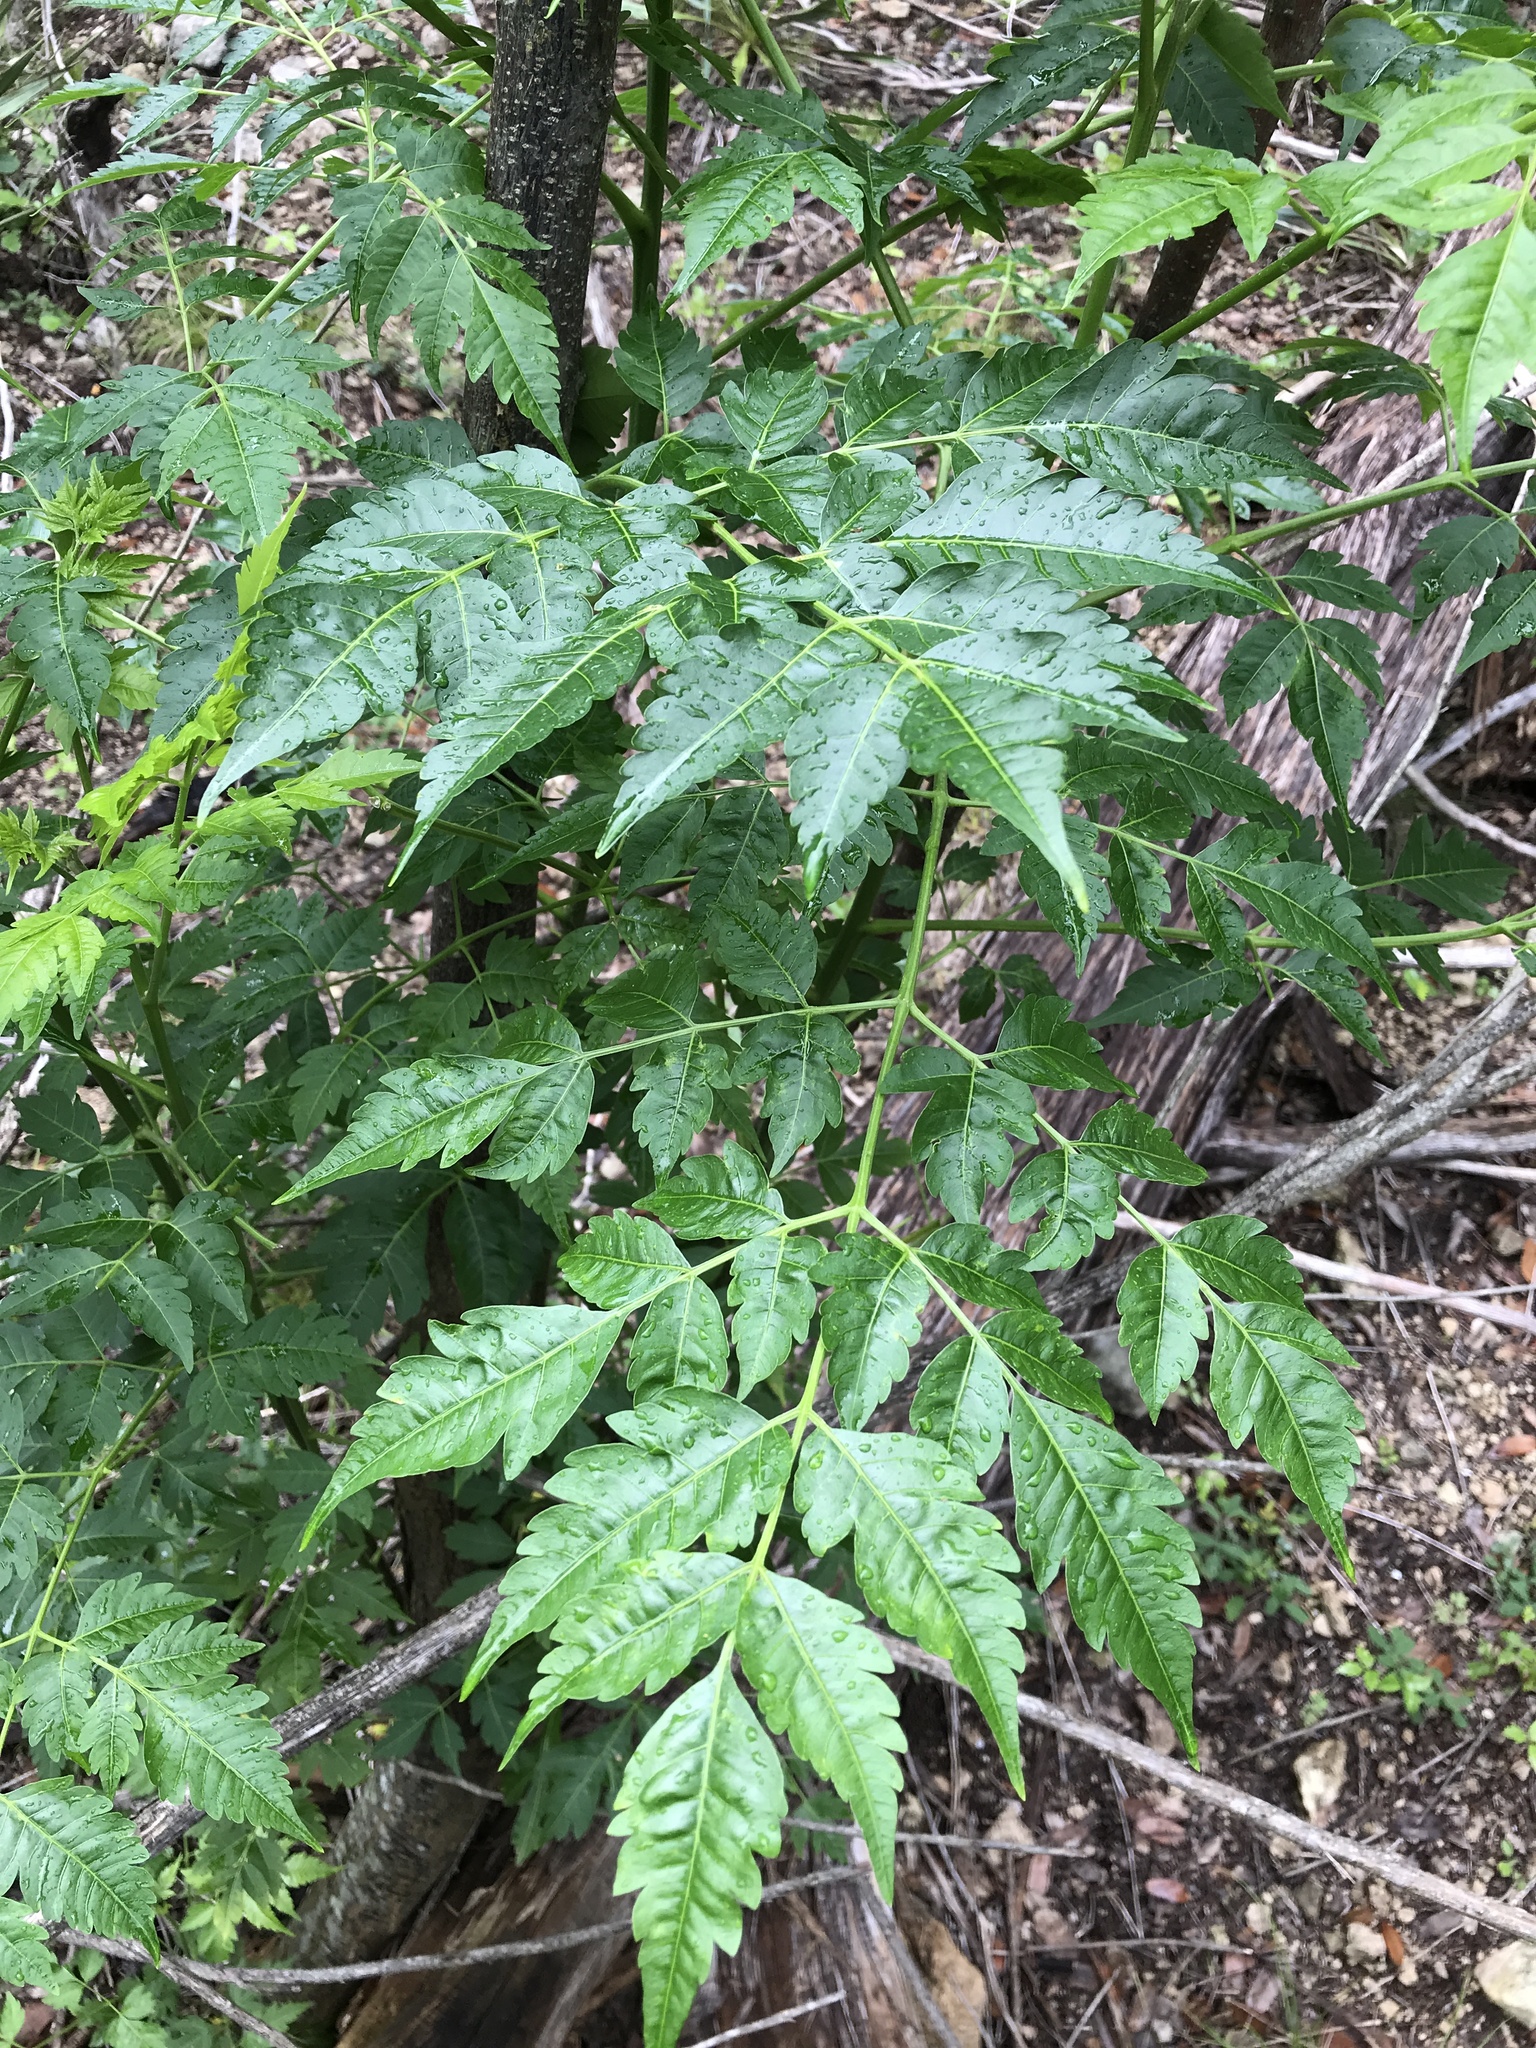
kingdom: Plantae
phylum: Tracheophyta
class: Magnoliopsida
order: Sapindales
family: Meliaceae
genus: Melia
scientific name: Melia azedarach
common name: Chinaberrytree
